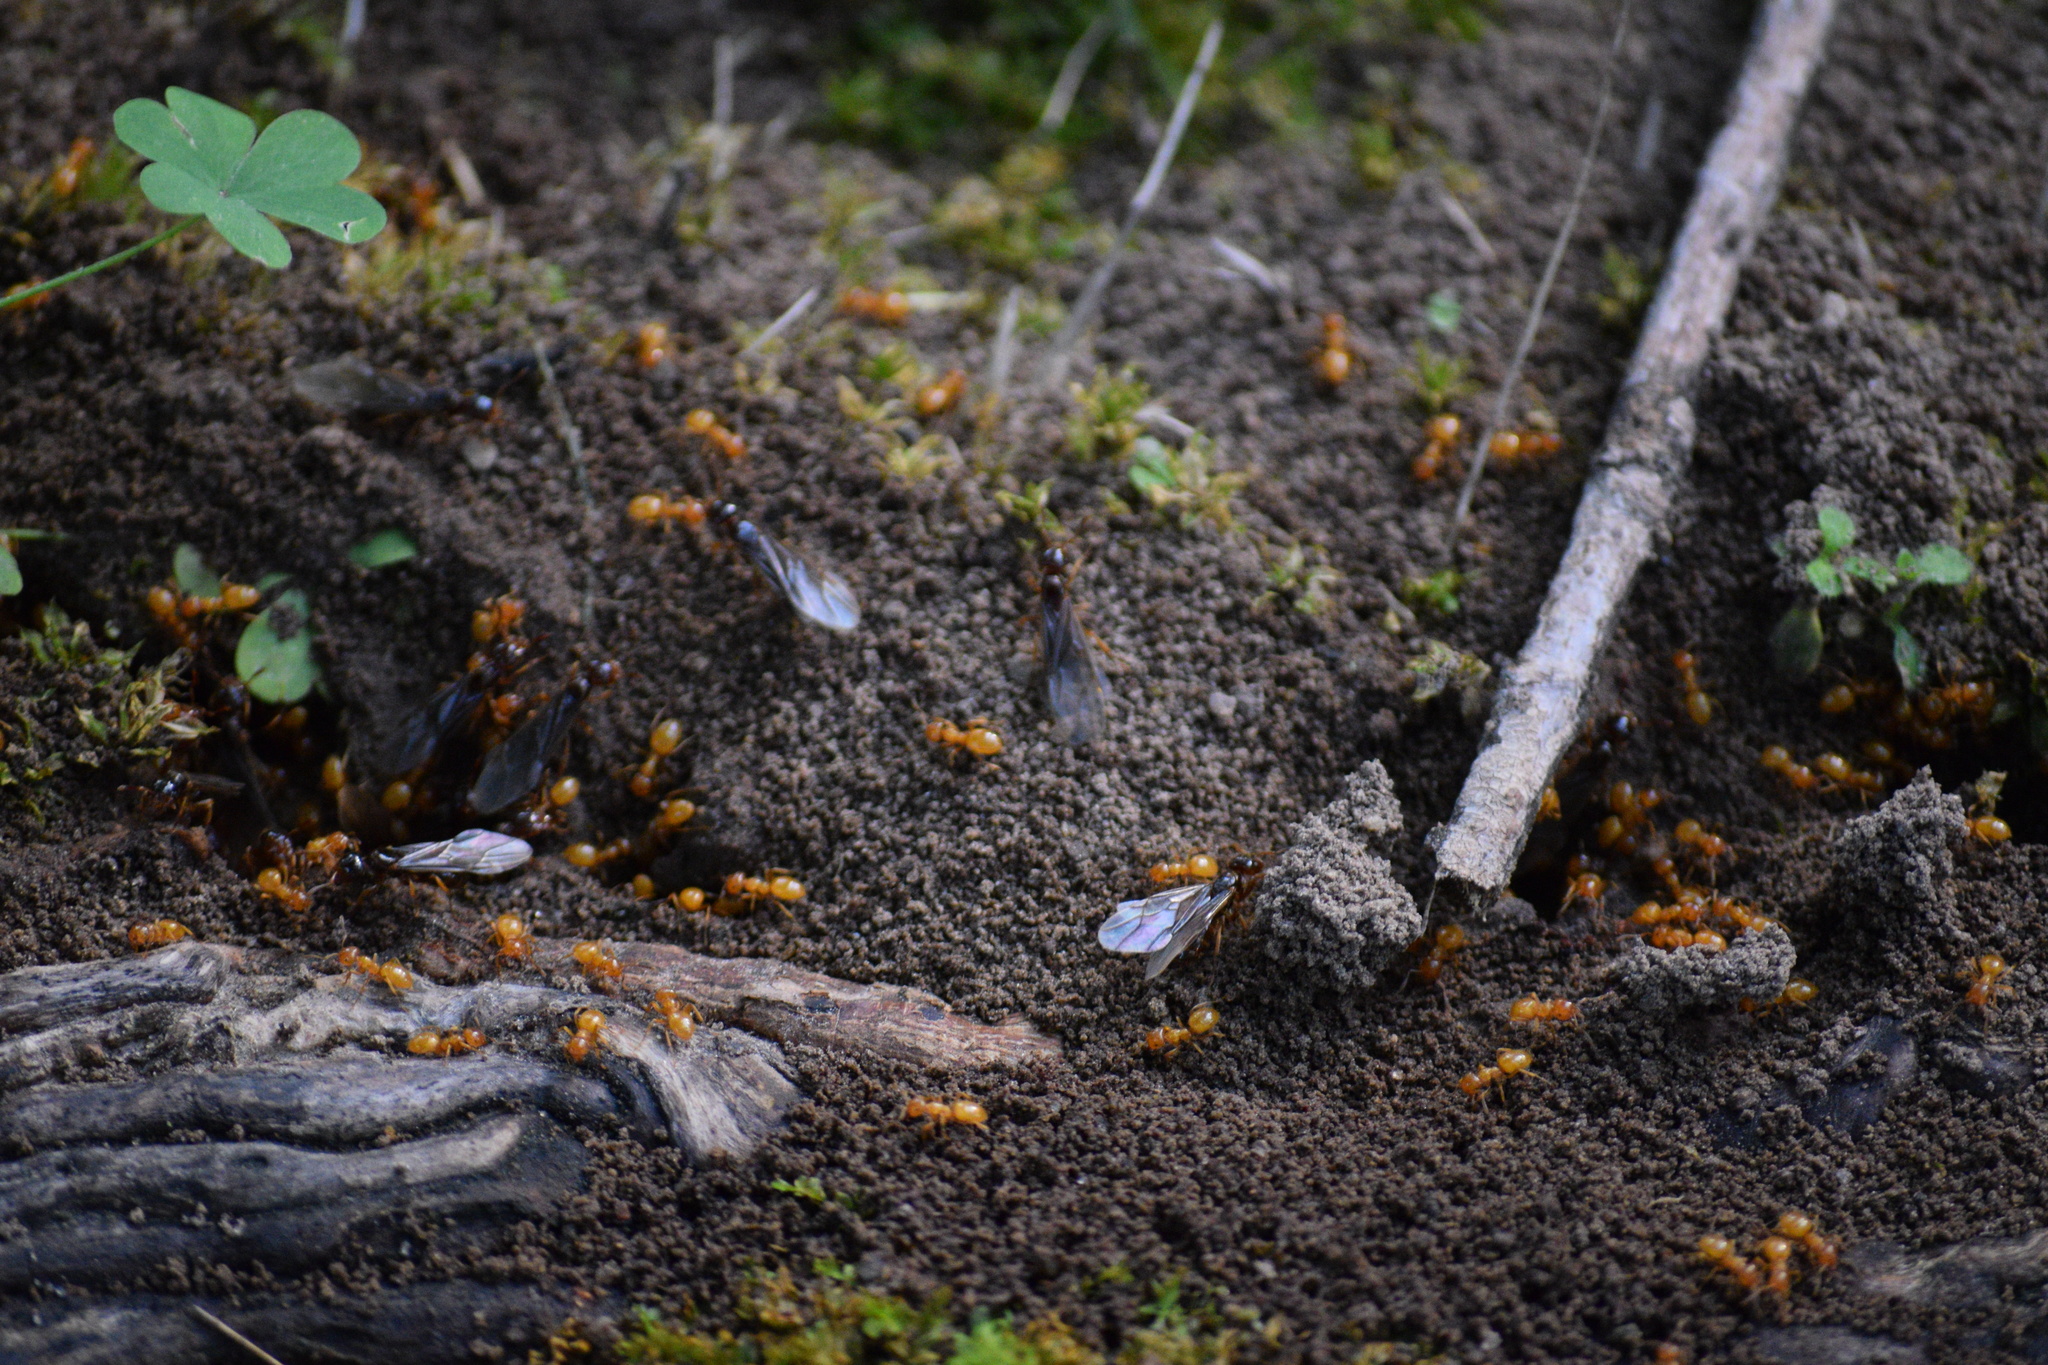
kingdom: Animalia
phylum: Arthropoda
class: Insecta
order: Hymenoptera
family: Formicidae
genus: Acanthomyops
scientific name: Acanthomyops
